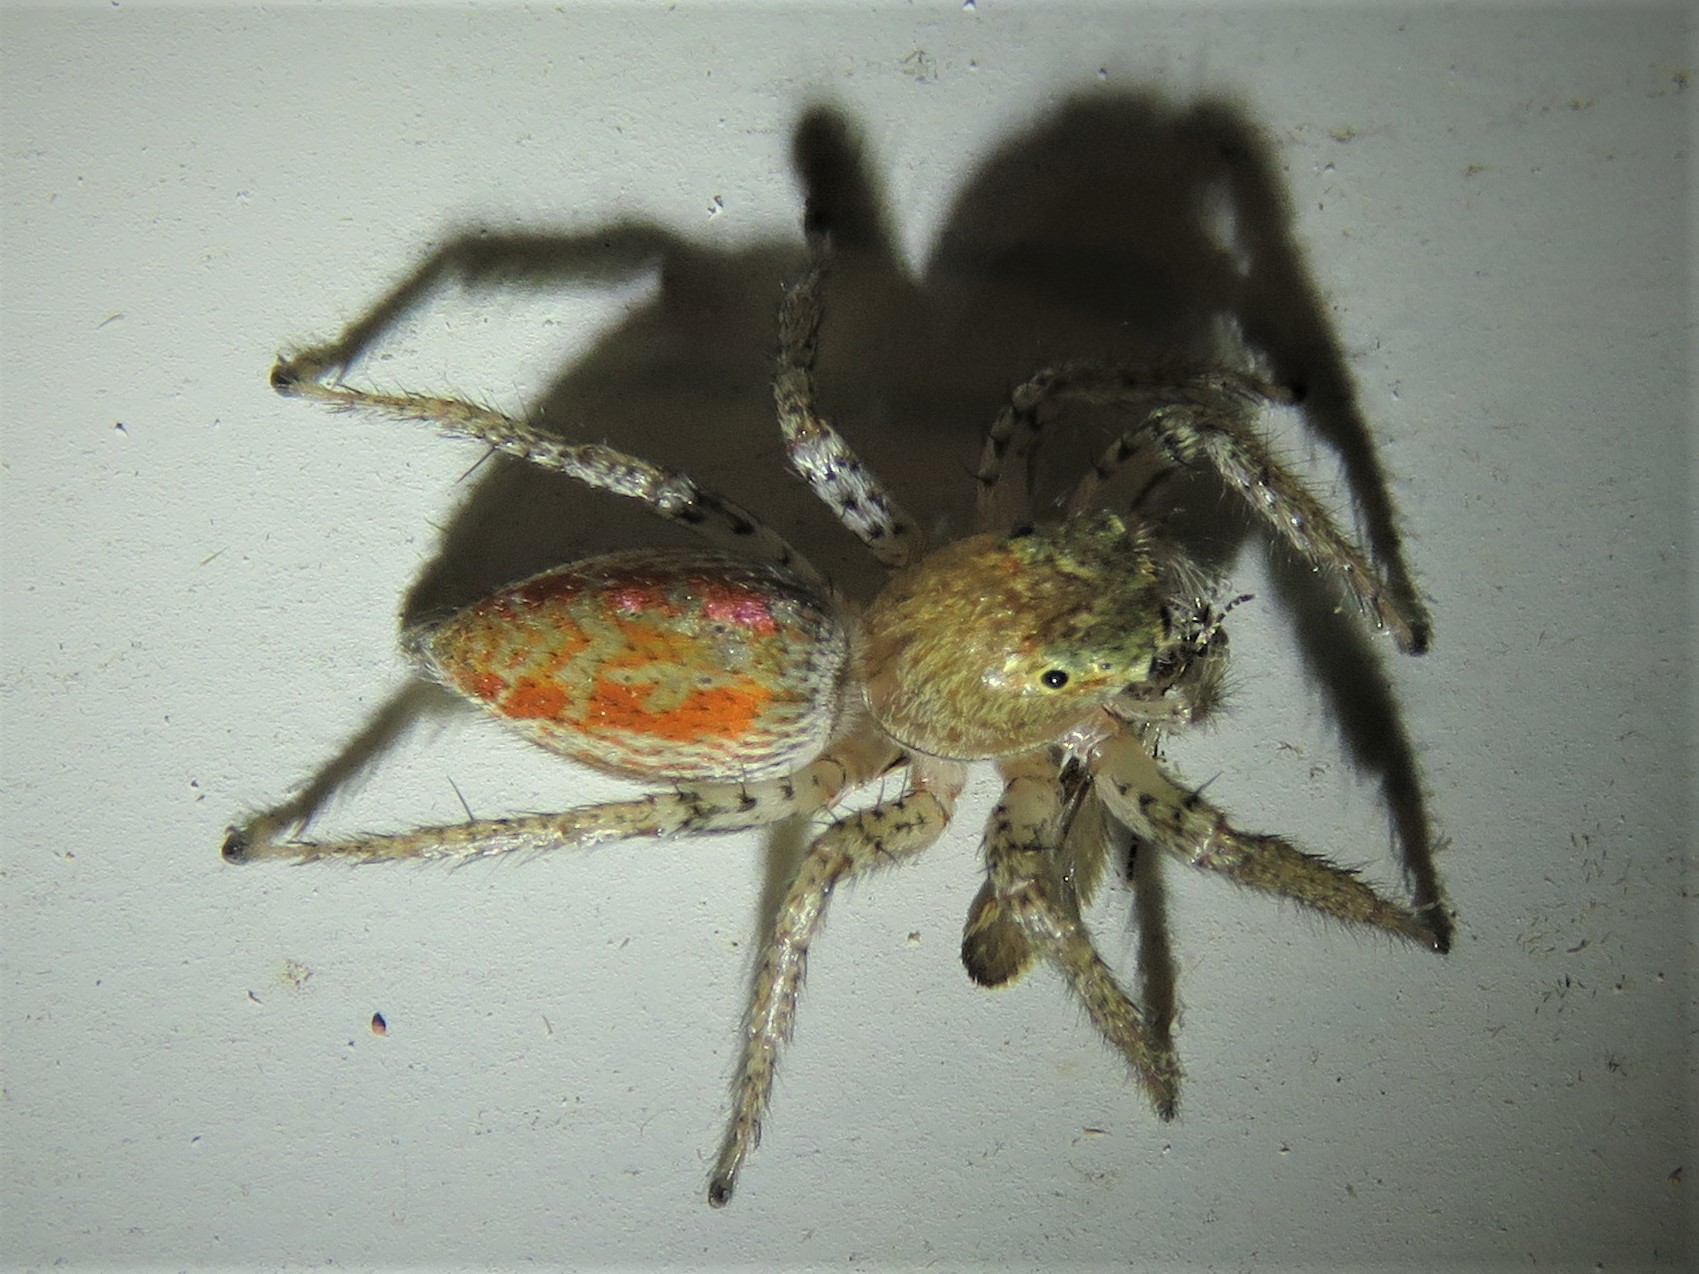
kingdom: Animalia
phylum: Arthropoda
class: Arachnida
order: Araneae
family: Salticidae
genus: Maevia
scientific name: Maevia inclemens
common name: Dimorphic jumper
